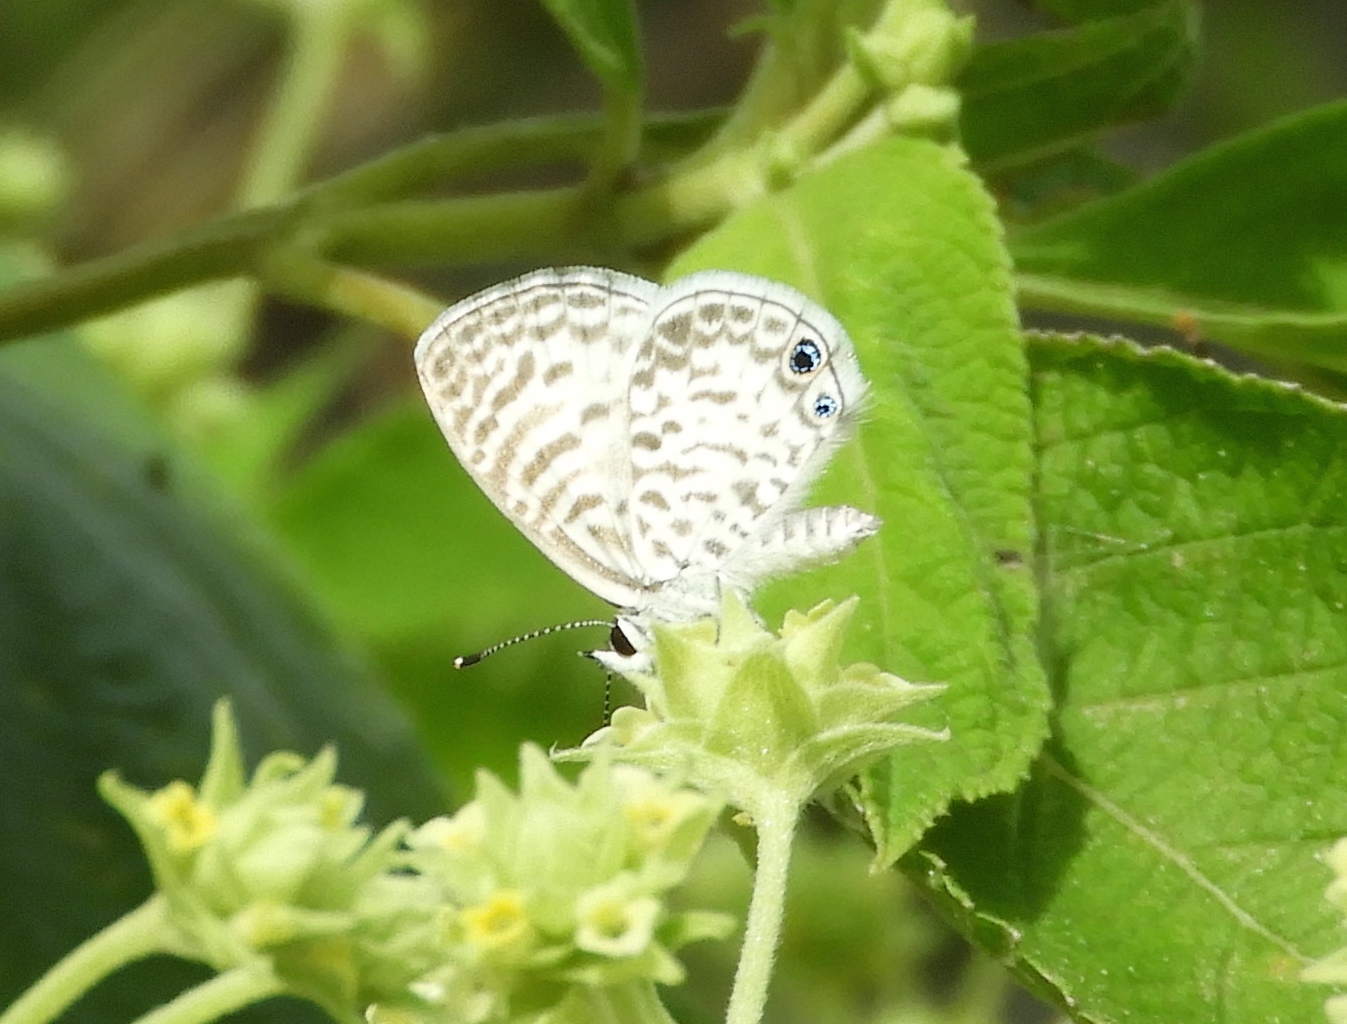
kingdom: Animalia
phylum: Arthropoda
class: Insecta
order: Lepidoptera
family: Lycaenidae
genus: Leptotes
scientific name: Leptotes theonus
